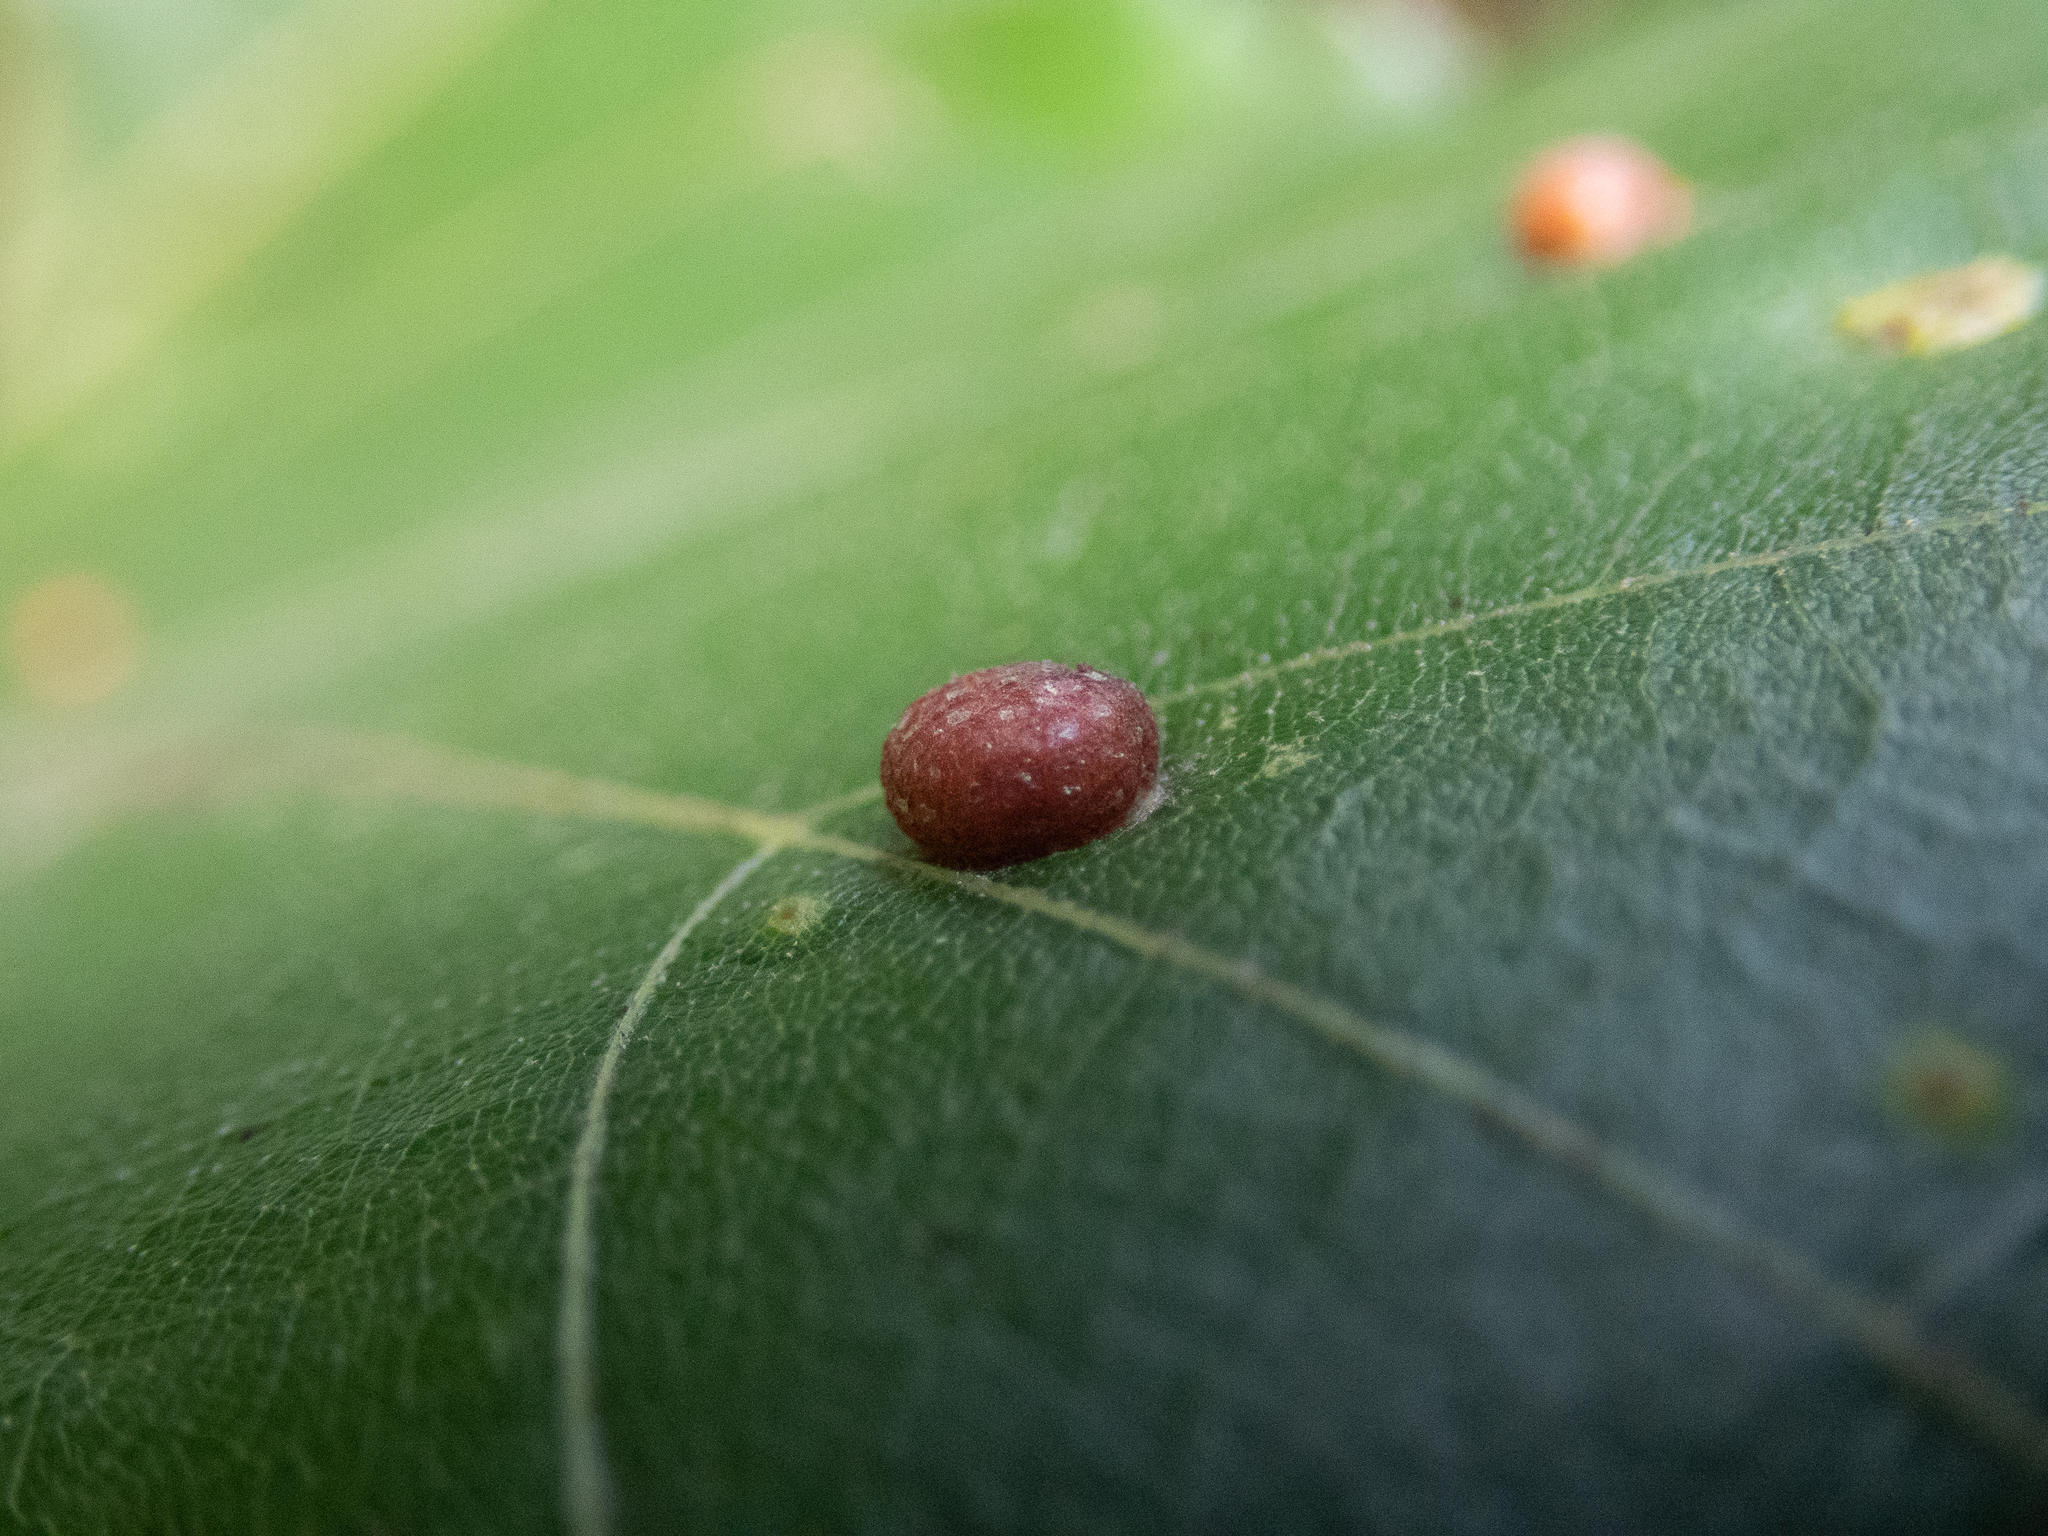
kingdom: Animalia
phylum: Arthropoda
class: Insecta
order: Diptera
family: Cecidomyiidae
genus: Polystepha
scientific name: Polystepha pilulae
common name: Oak leaf gall midge
